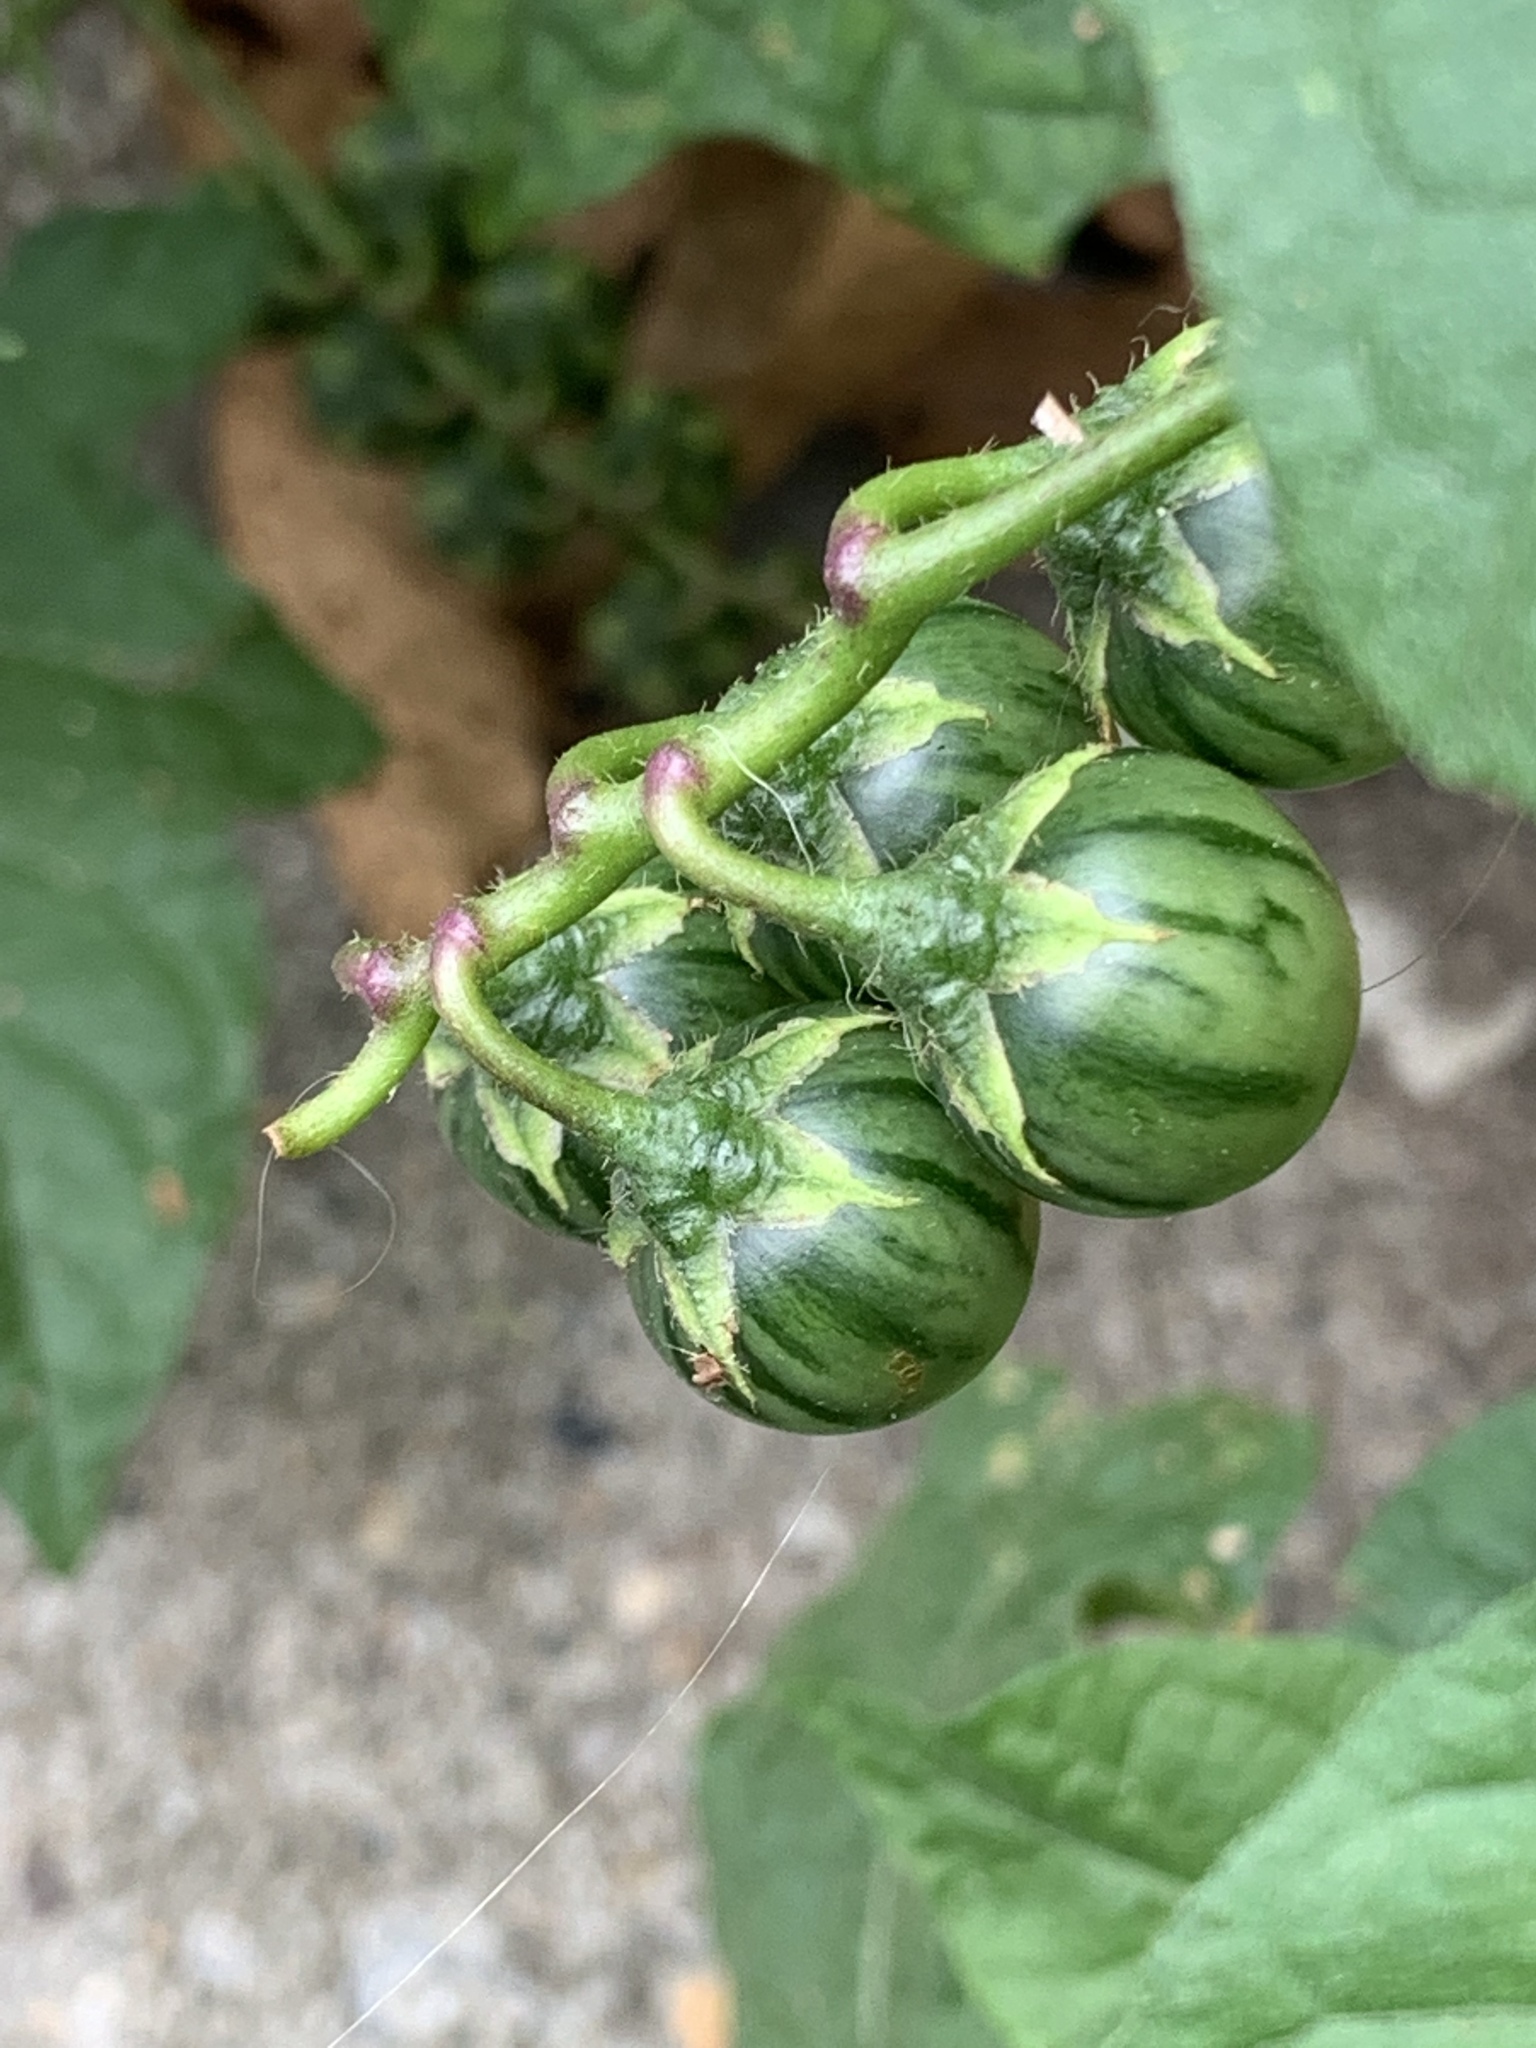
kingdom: Plantae
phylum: Tracheophyta
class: Magnoliopsida
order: Solanales
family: Solanaceae
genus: Solanum
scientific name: Solanum carolinense
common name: Horse-nettle
